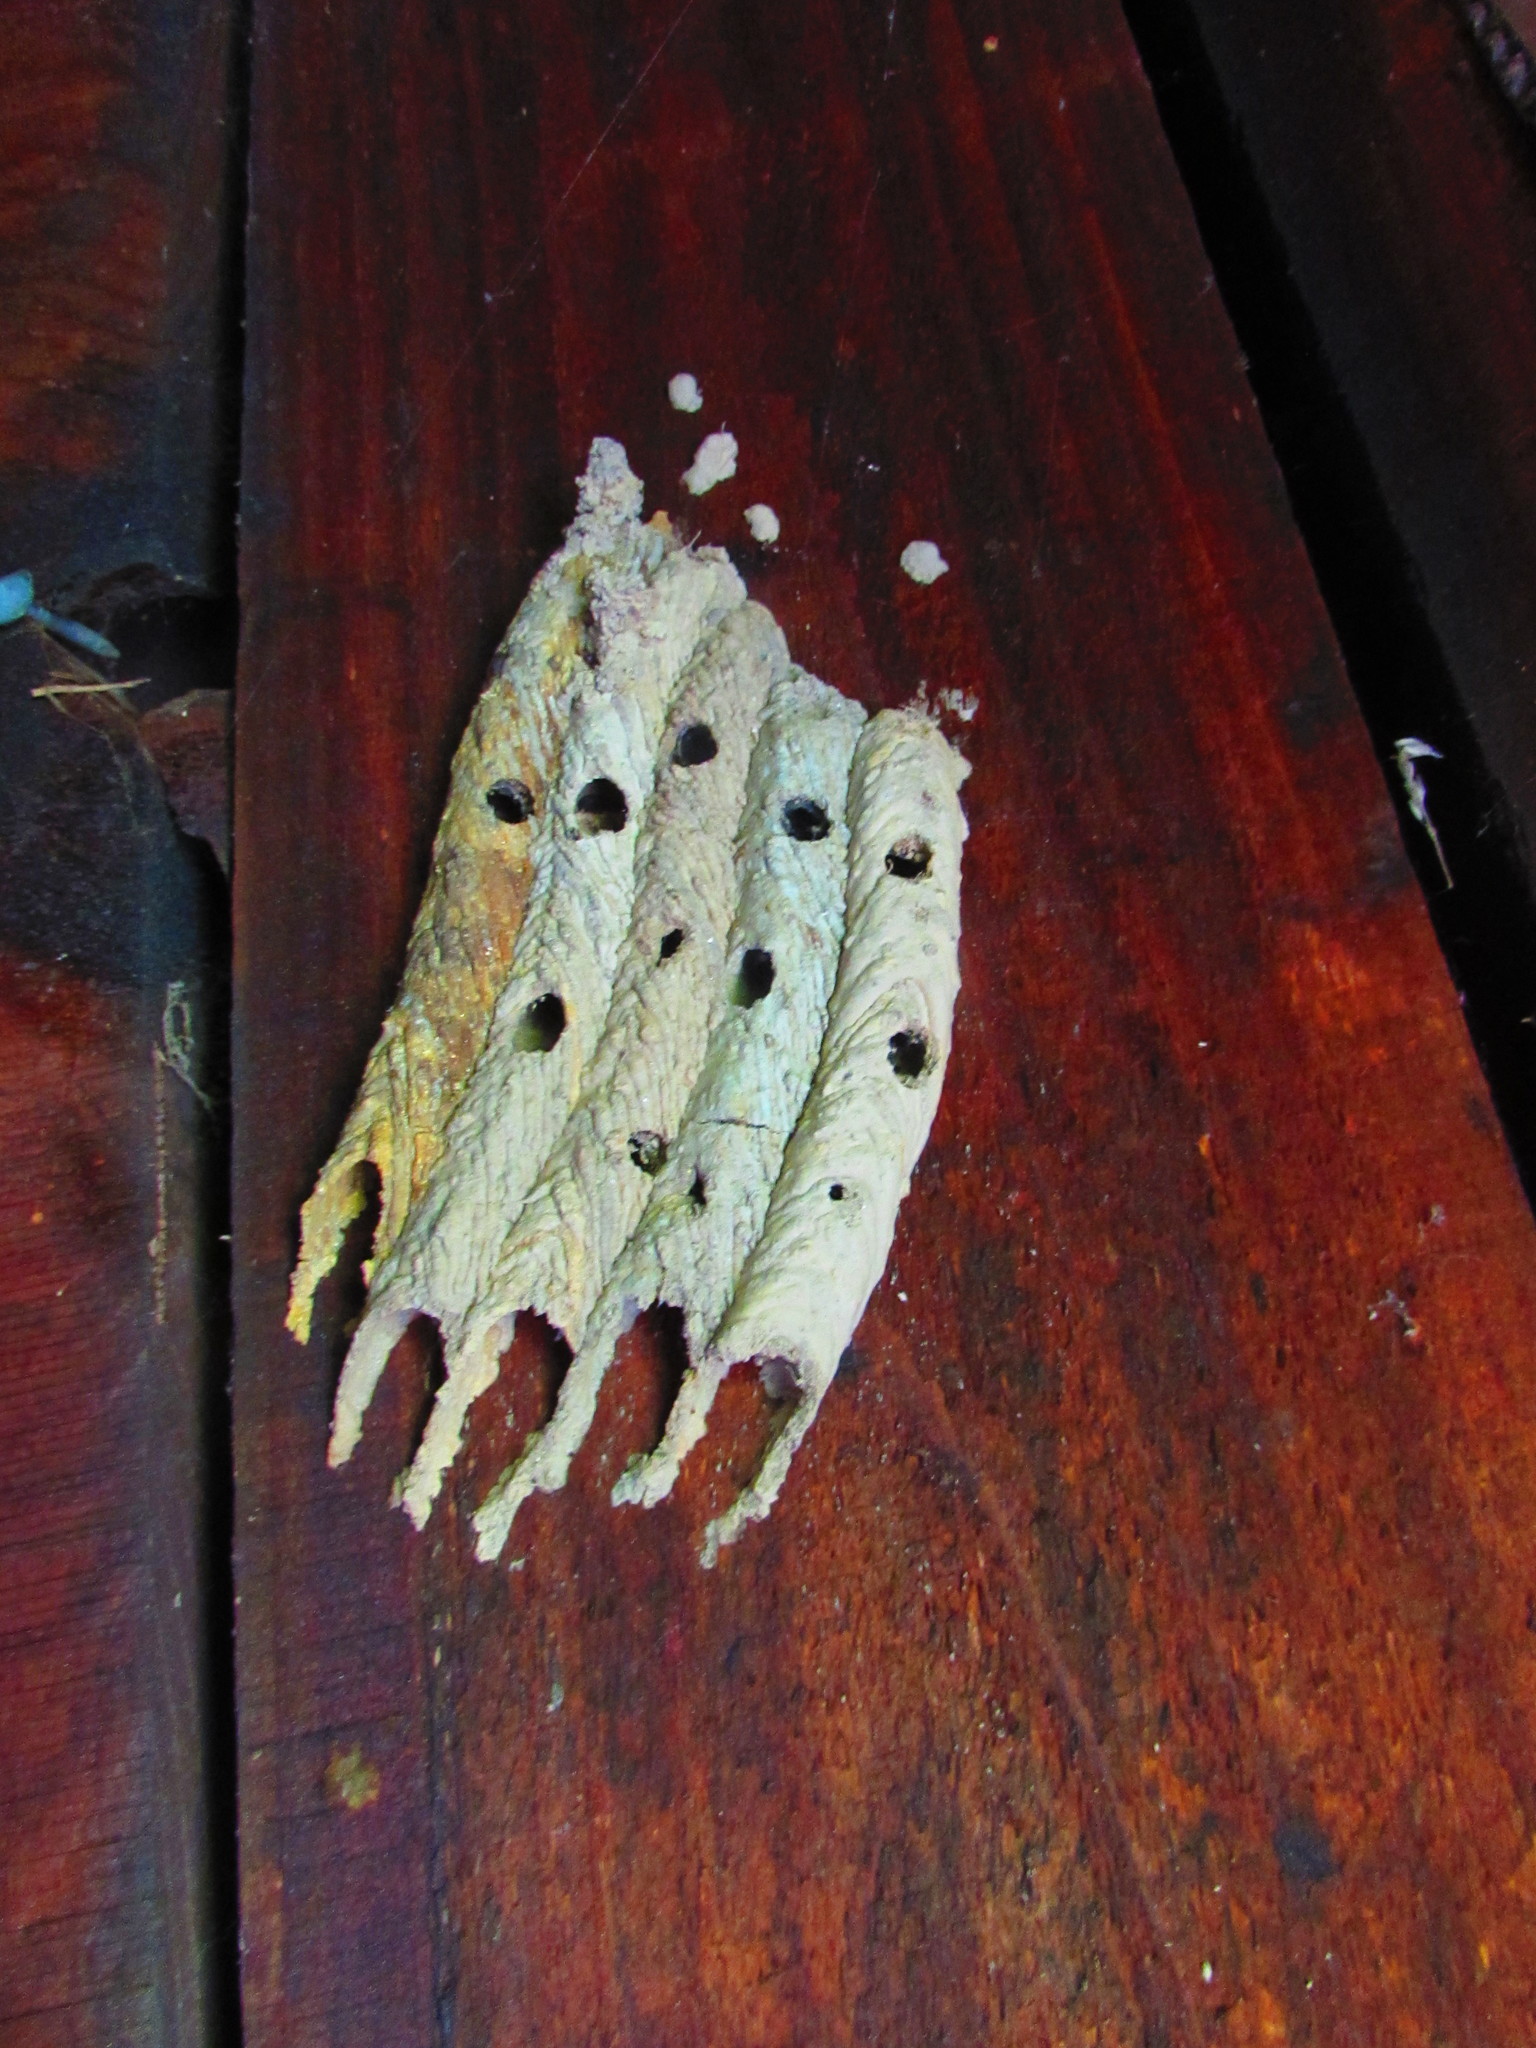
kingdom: Animalia
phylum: Arthropoda
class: Insecta
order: Hymenoptera
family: Crabronidae
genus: Trypoxylon
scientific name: Trypoxylon politum
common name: Organ-pipe mud-dauber wasp
